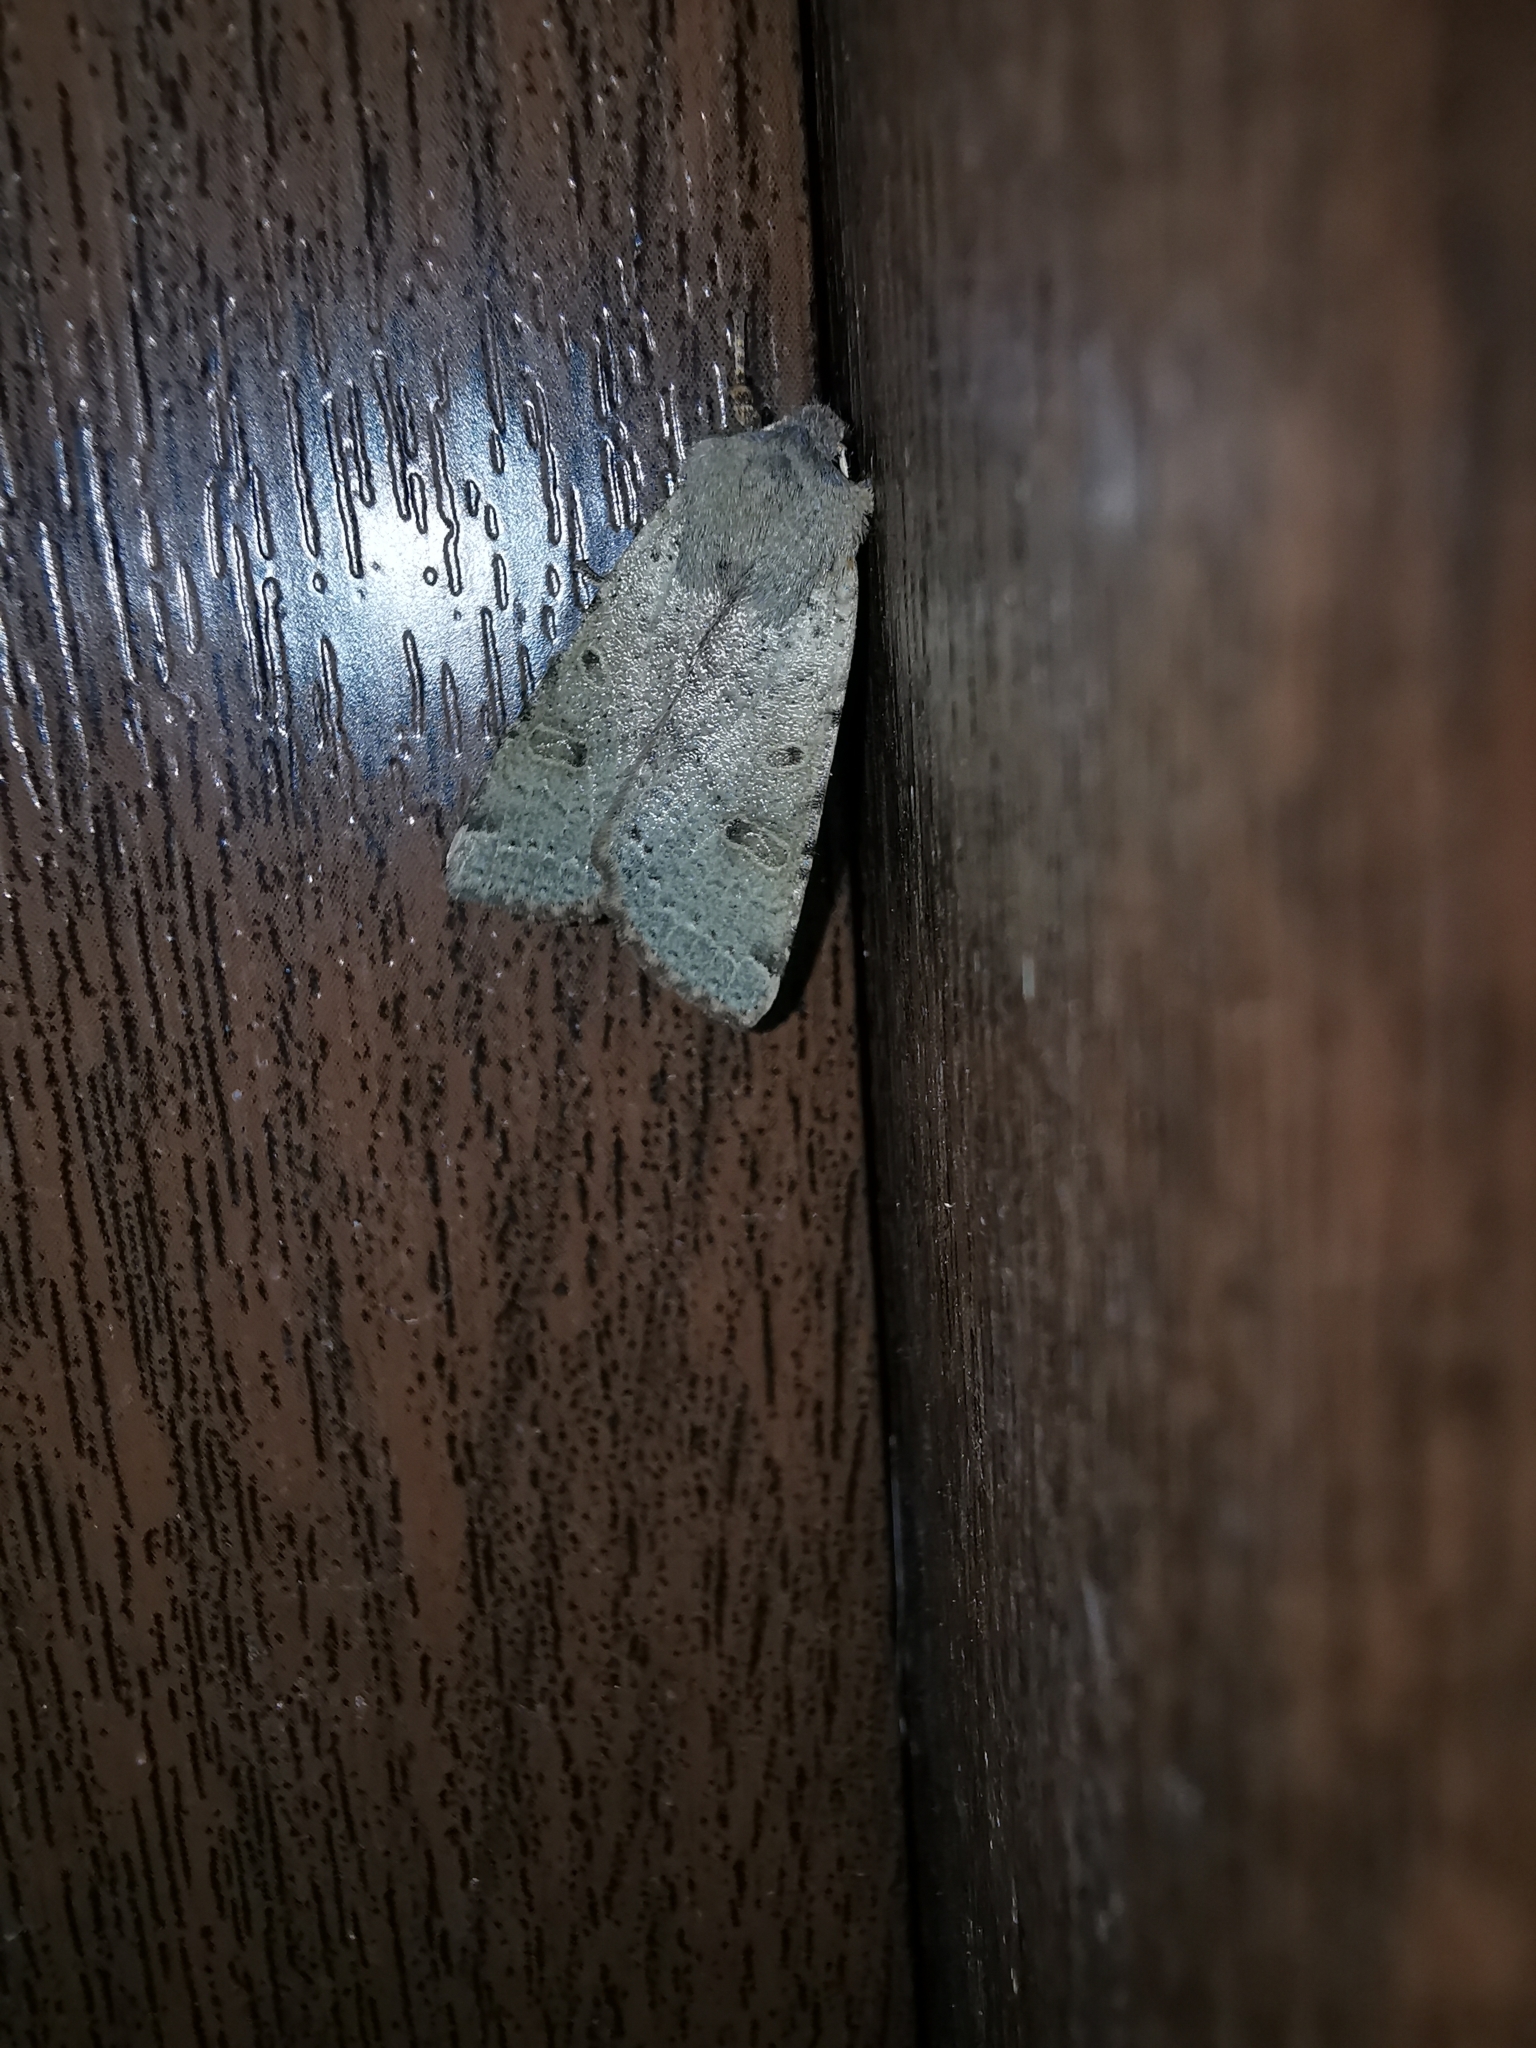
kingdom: Animalia
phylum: Arthropoda
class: Insecta
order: Lepidoptera
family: Noctuidae
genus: Agrochola
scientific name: Agrochola lychnidis
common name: Beaded chestnut
